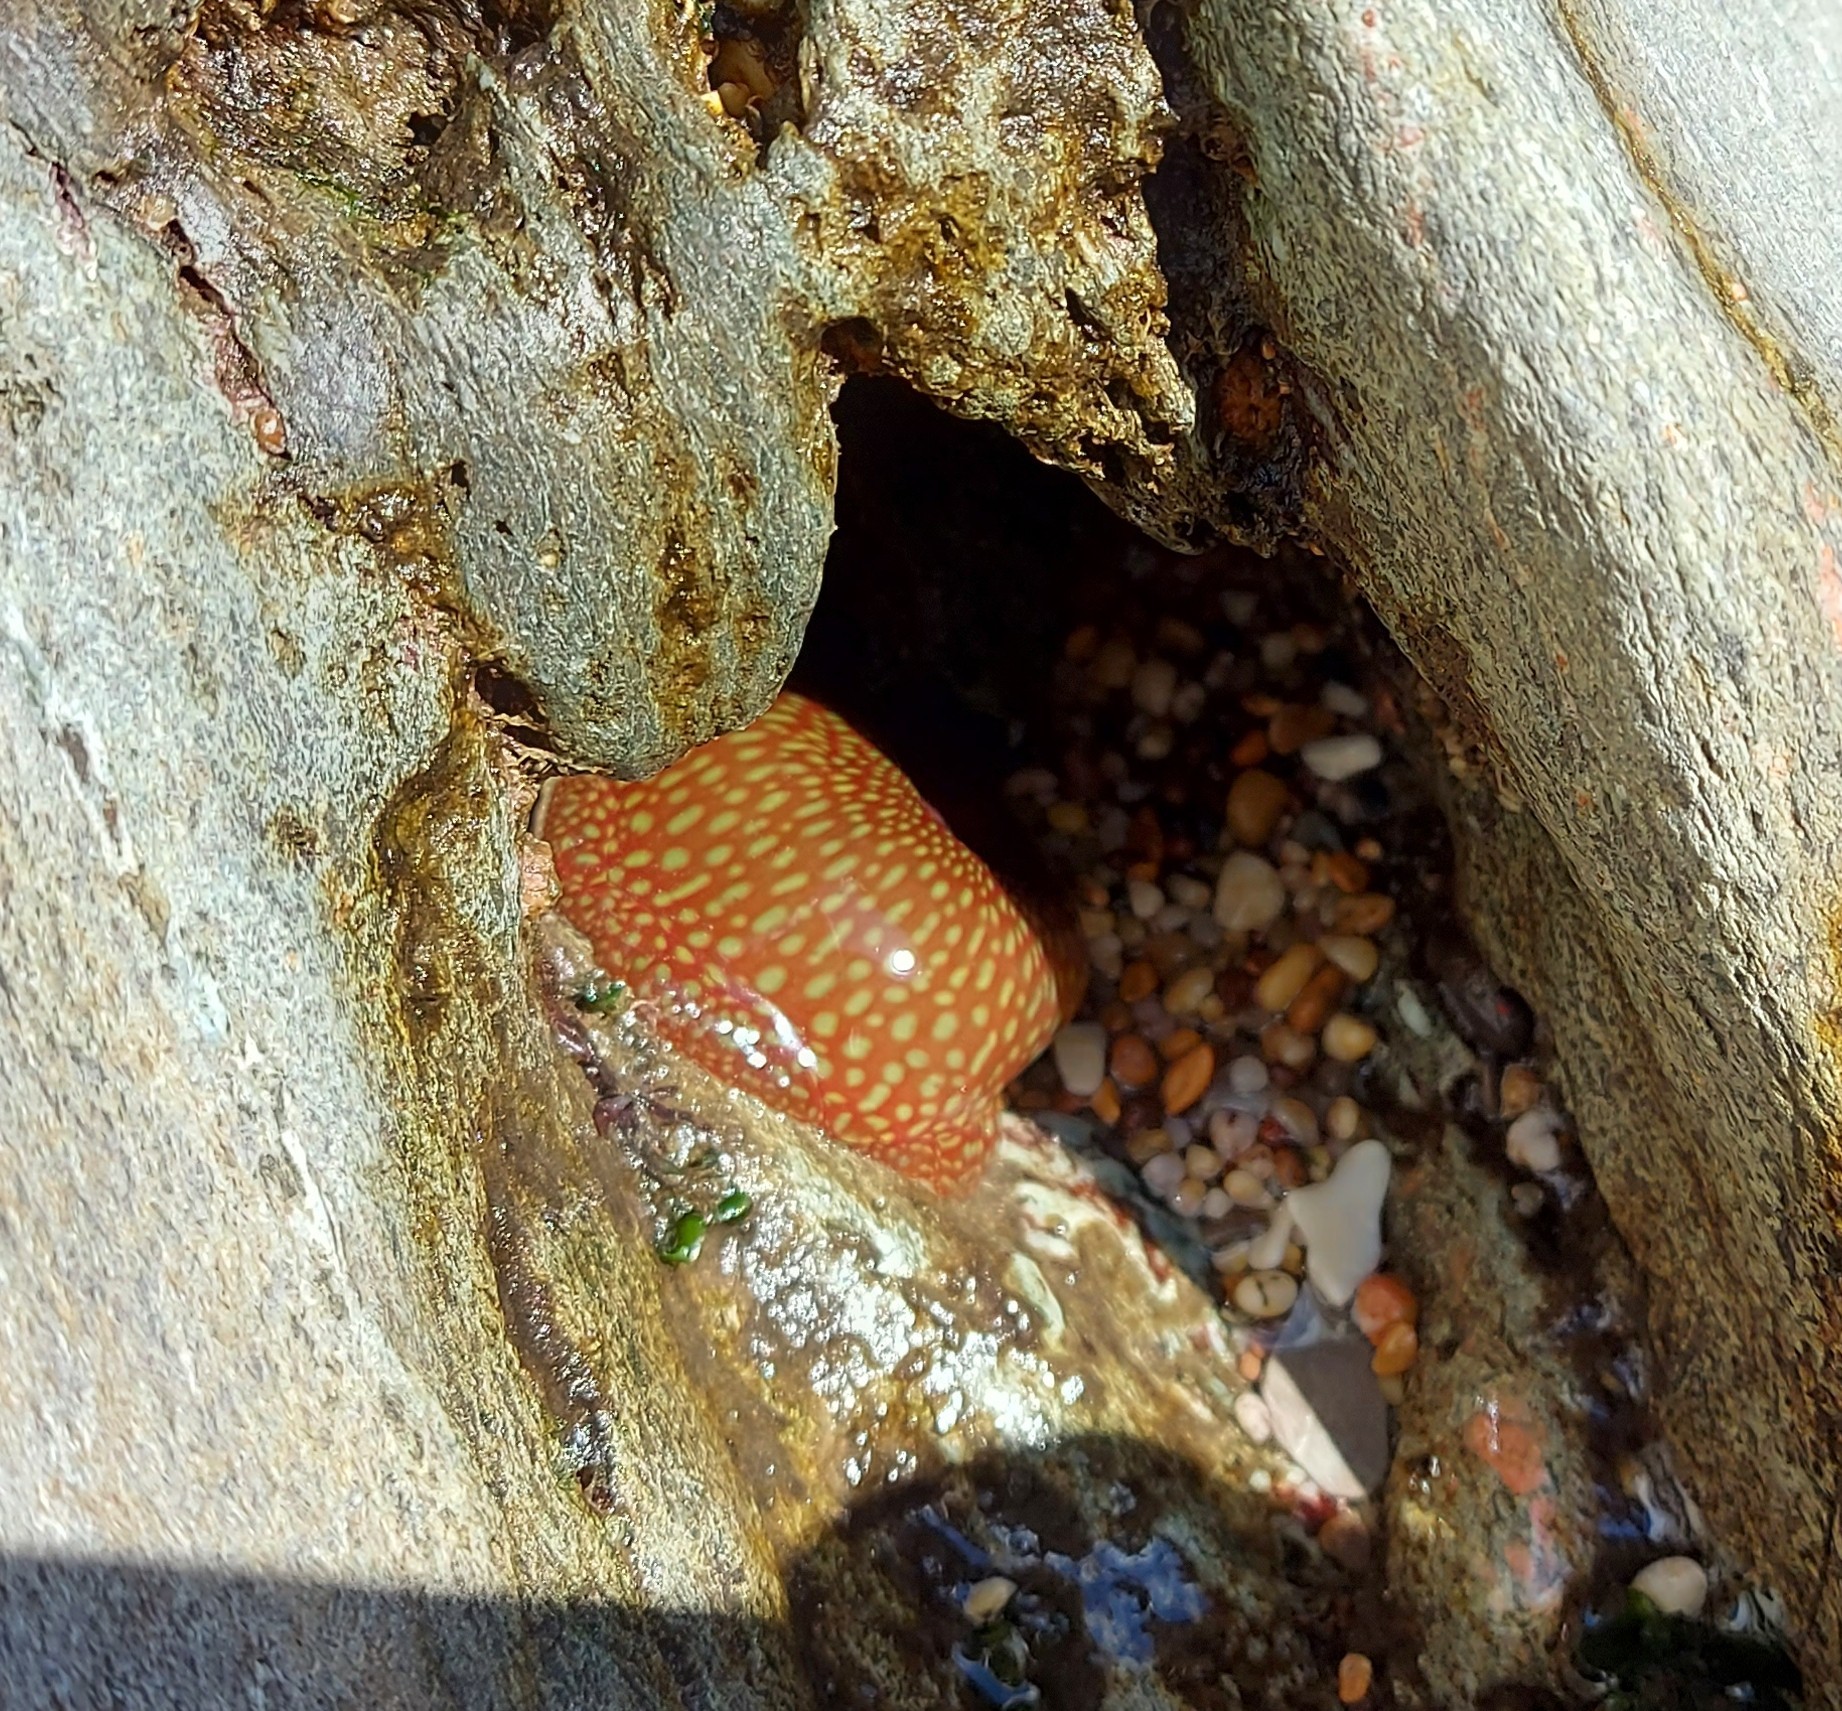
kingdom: Animalia
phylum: Cnidaria
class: Anthozoa
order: Actiniaria
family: Actiniidae
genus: Actinia
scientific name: Actinia fragacea
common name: Strawberry anemone
